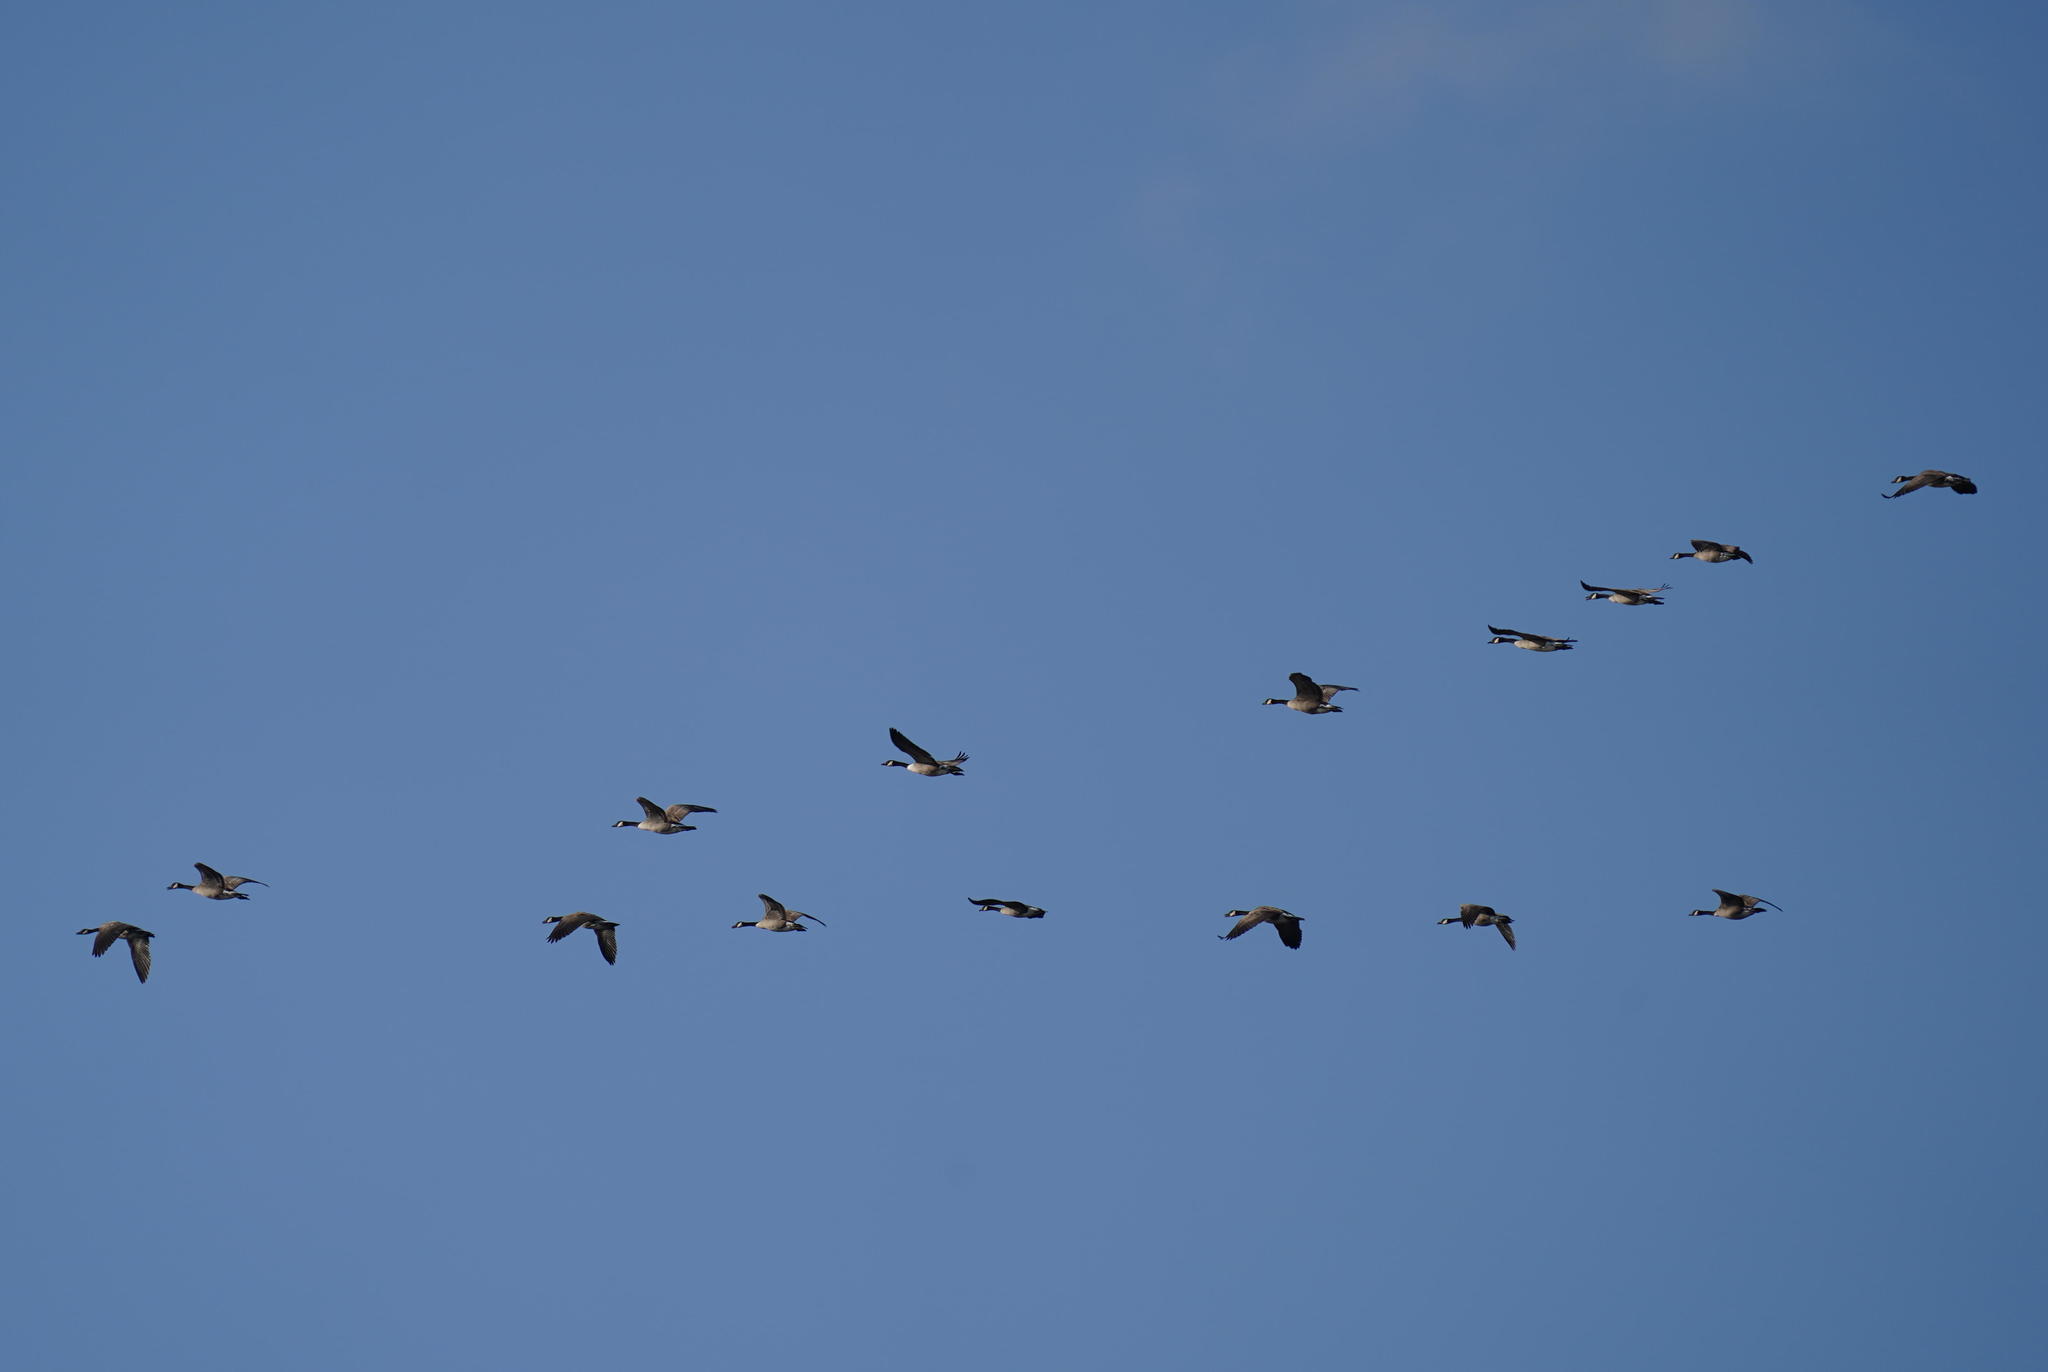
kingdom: Animalia
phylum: Chordata
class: Aves
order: Anseriformes
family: Anatidae
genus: Branta
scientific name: Branta canadensis
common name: Canada goose
